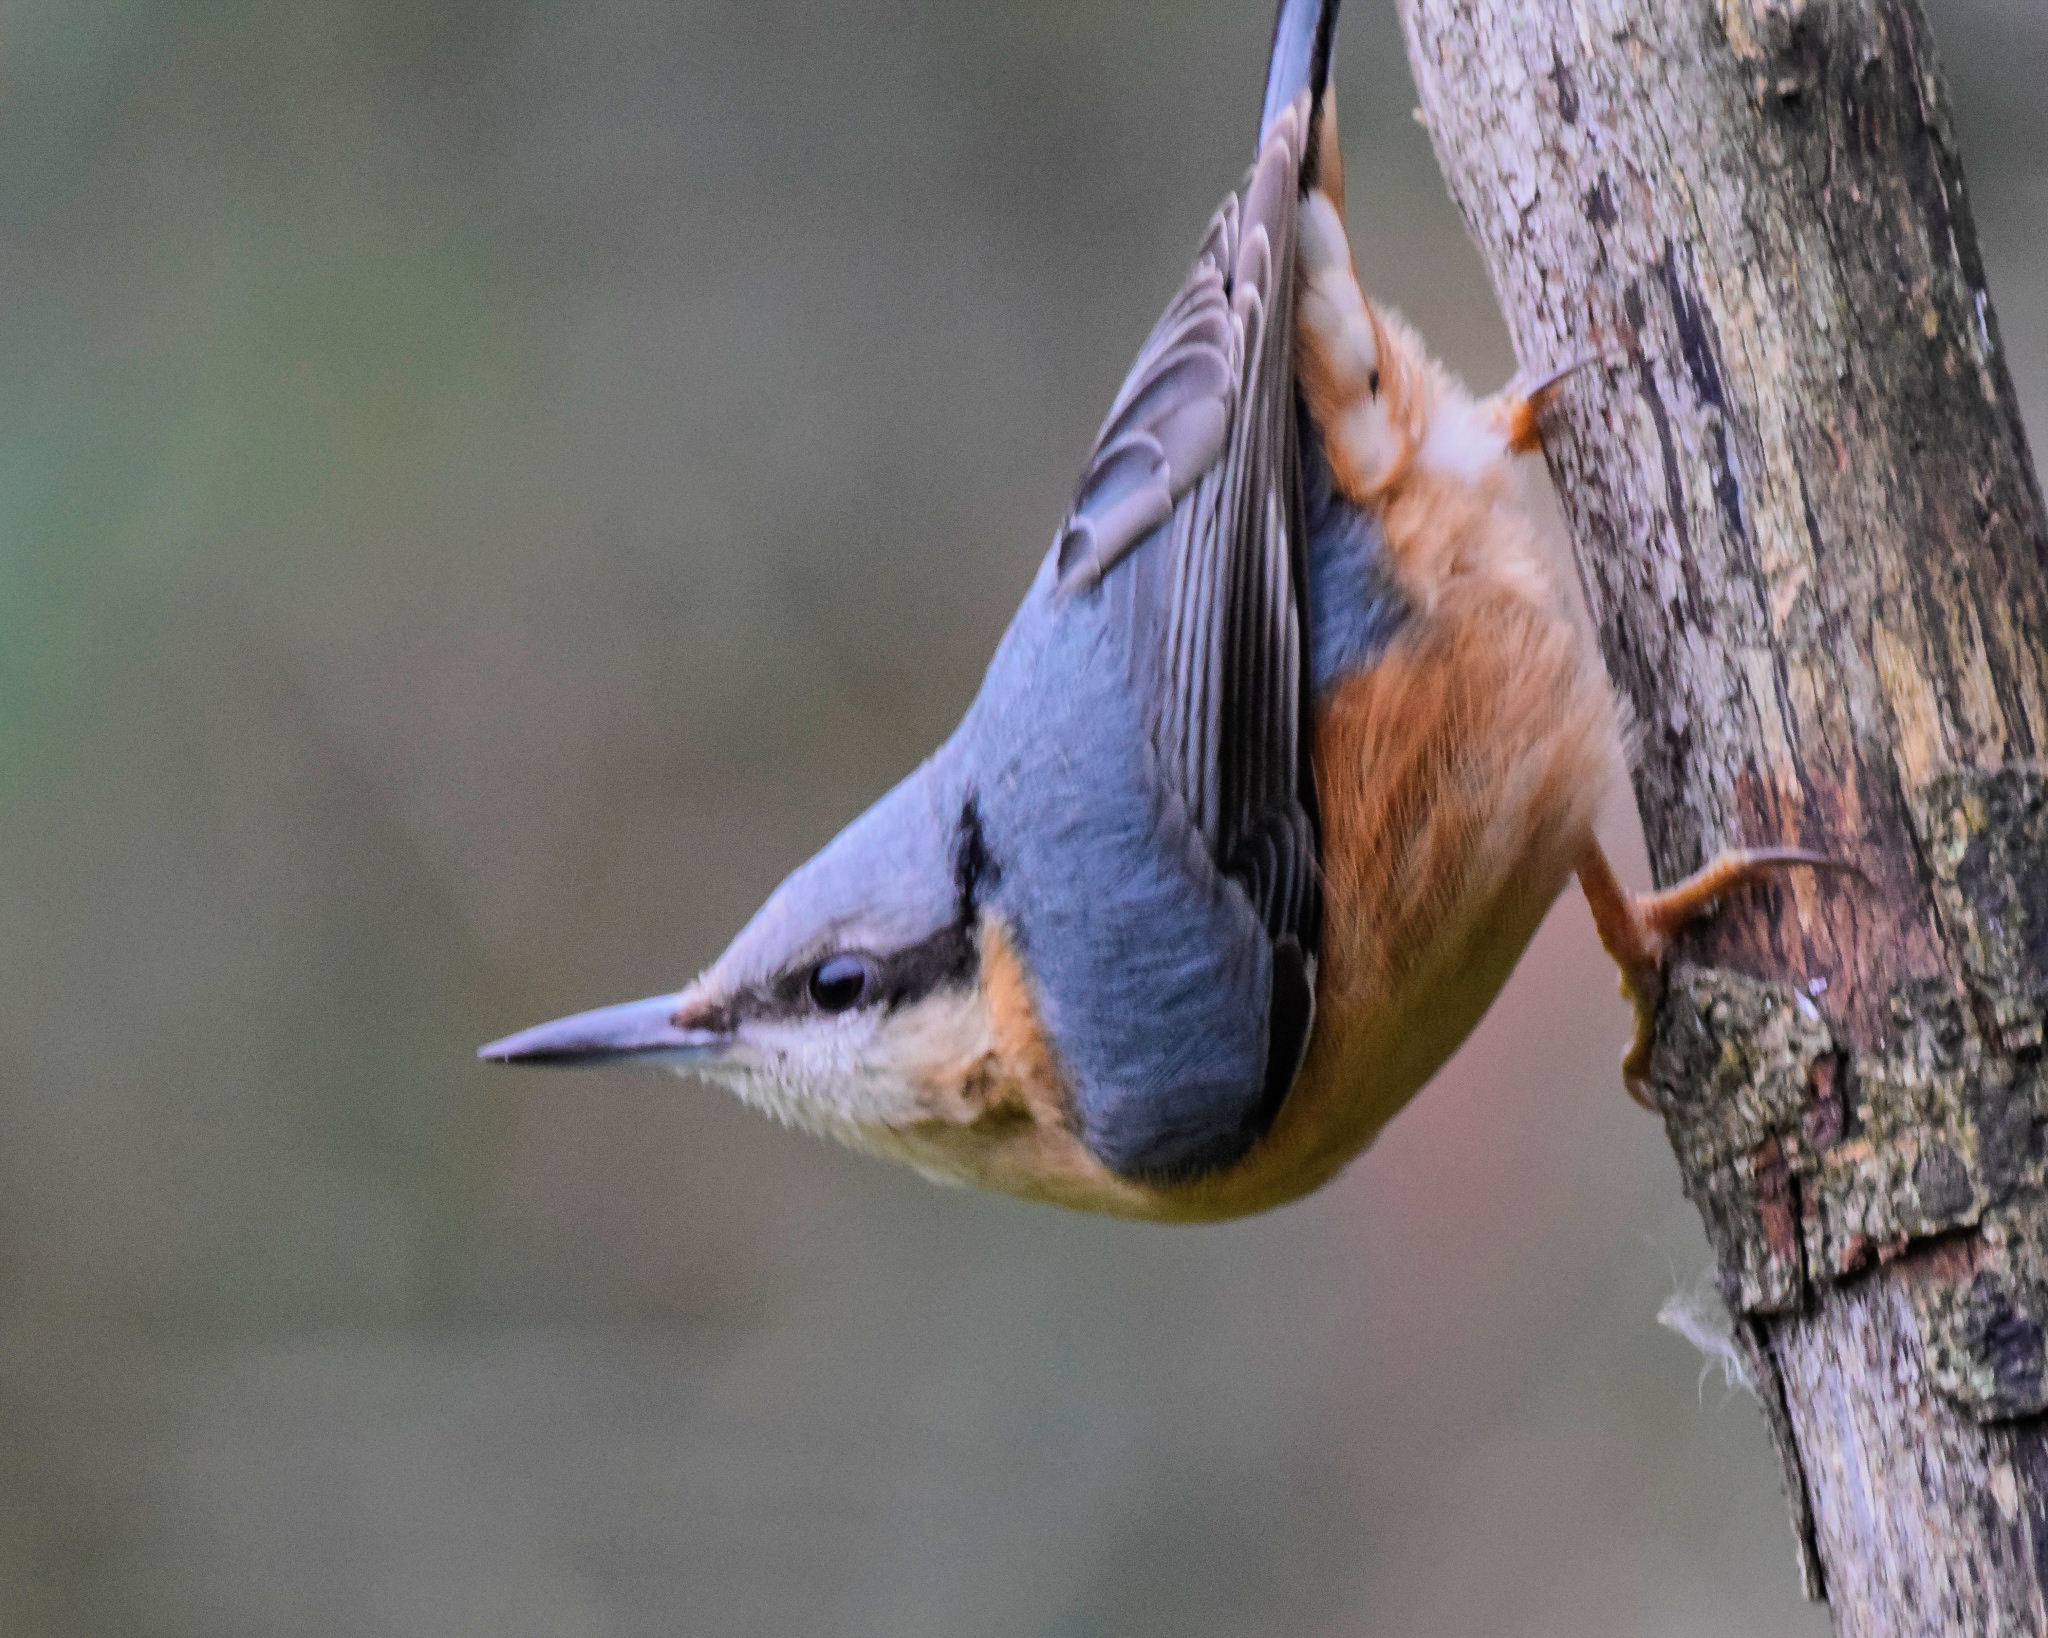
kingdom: Animalia
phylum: Chordata
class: Aves
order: Passeriformes
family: Sittidae
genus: Sitta
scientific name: Sitta europaea
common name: Eurasian nuthatch
